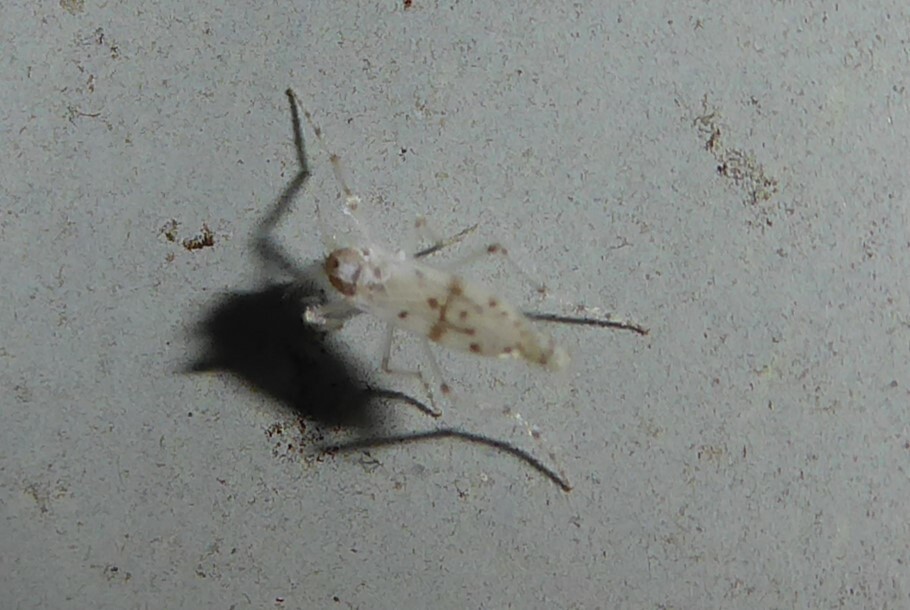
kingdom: Animalia
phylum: Arthropoda
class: Insecta
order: Diptera
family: Chaoboridae
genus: Chaoborus
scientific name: Chaoborus ornatipennis
